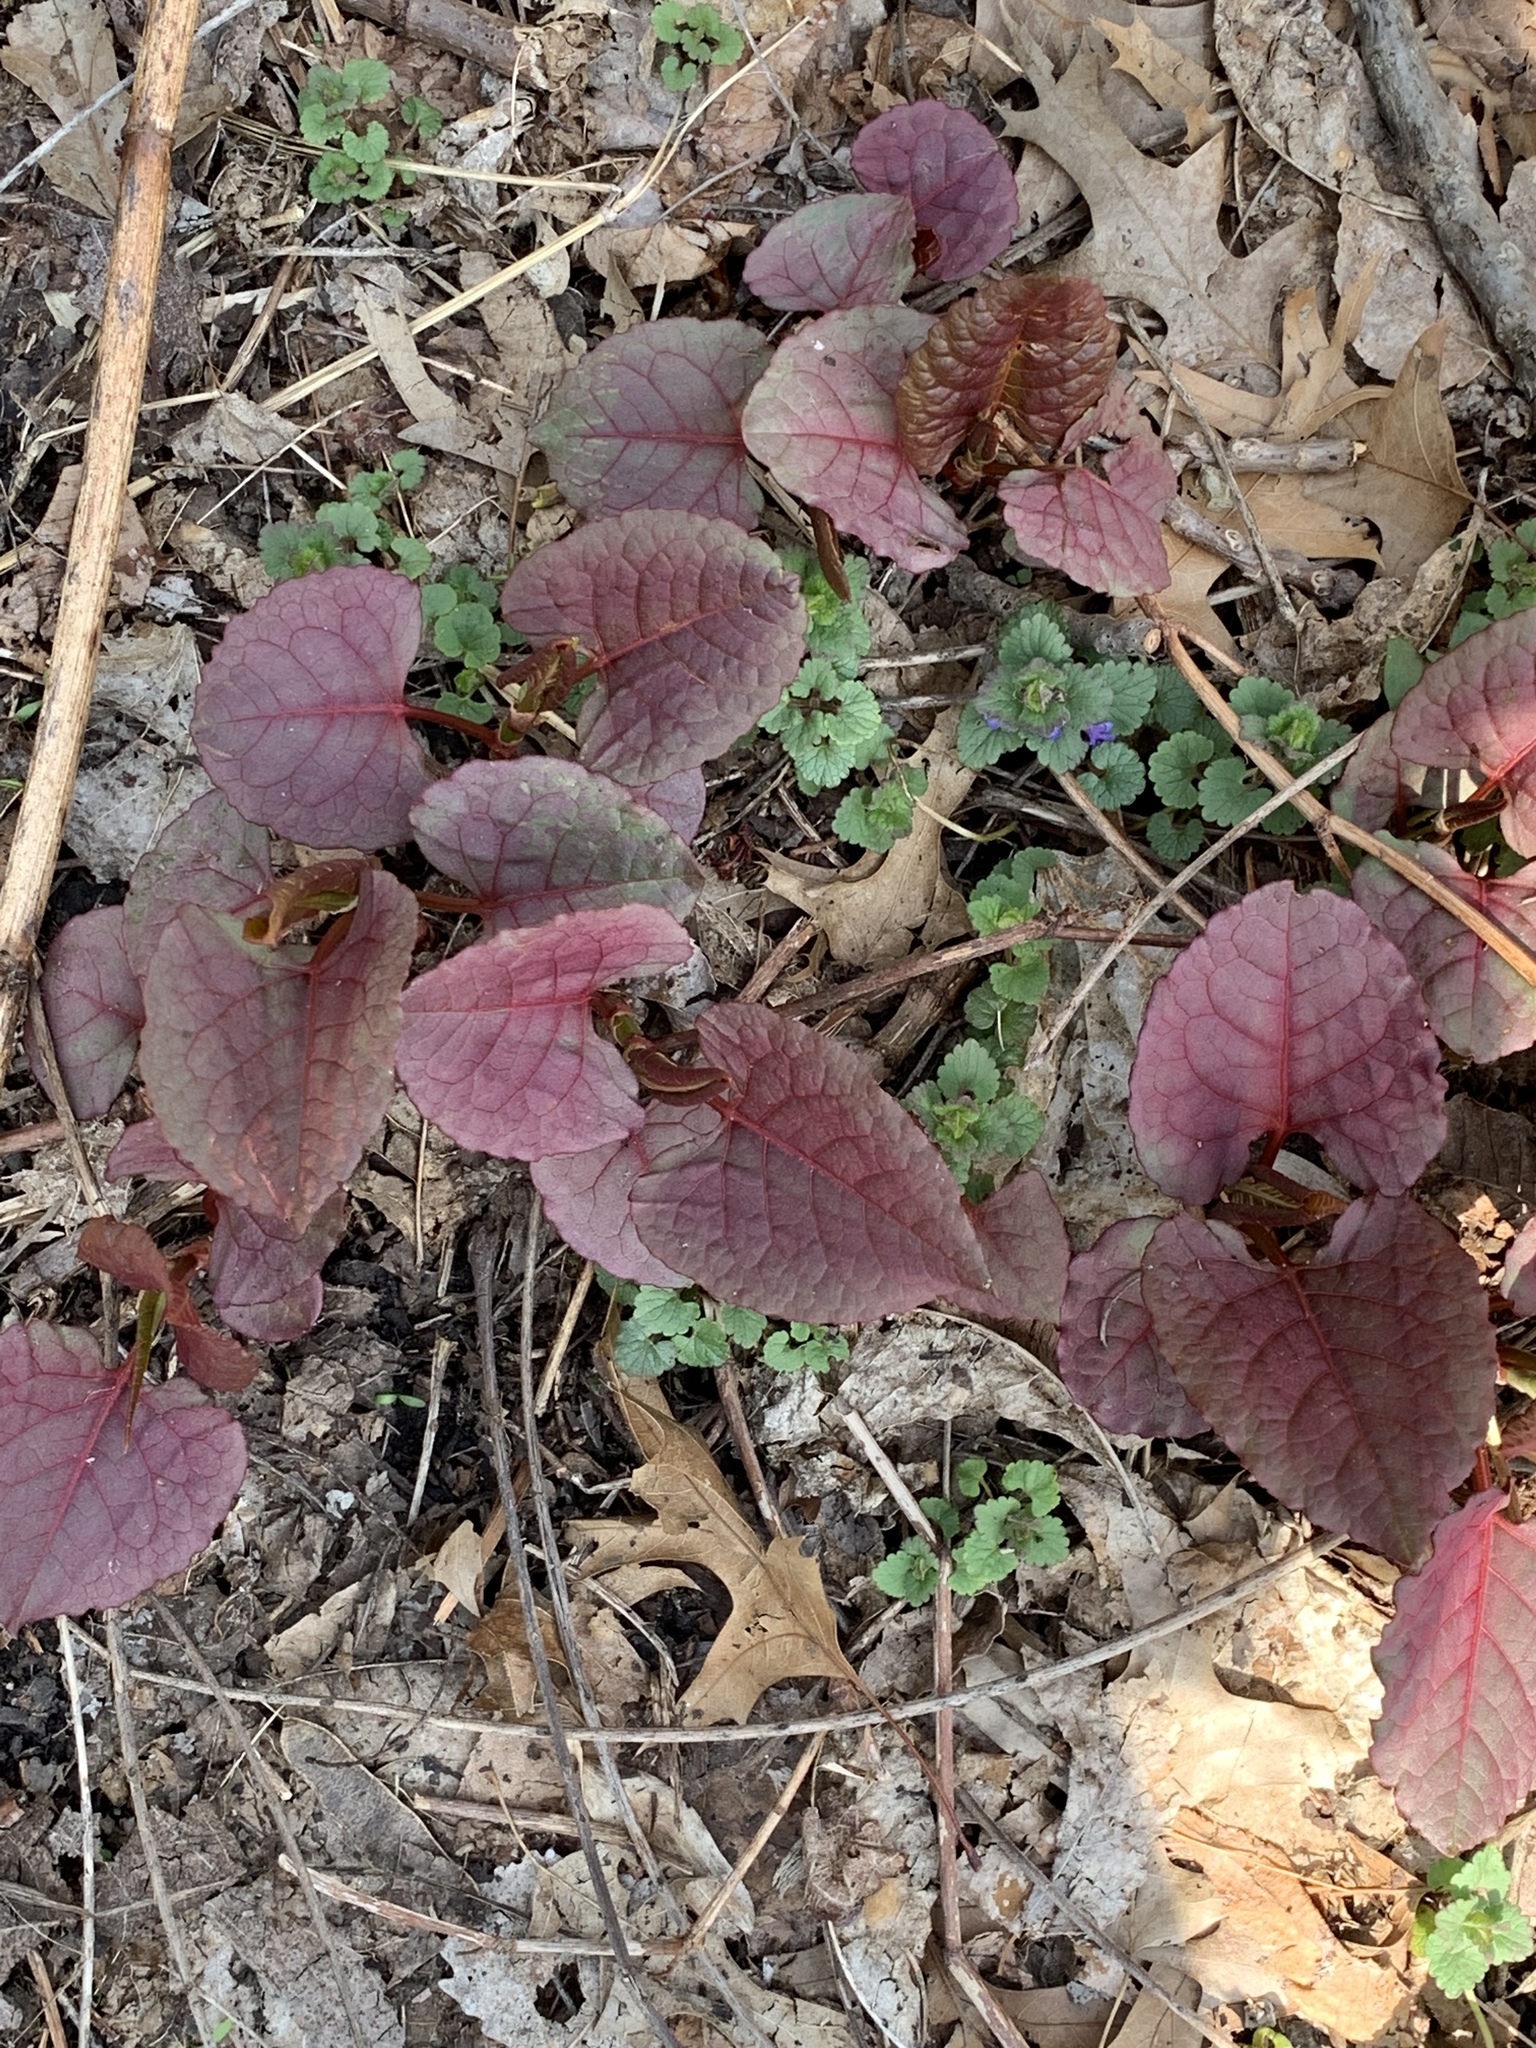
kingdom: Plantae
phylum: Tracheophyta
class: Magnoliopsida
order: Caryophyllales
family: Polygonaceae
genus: Reynoutria
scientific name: Reynoutria japonica
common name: Japanese knotweed
